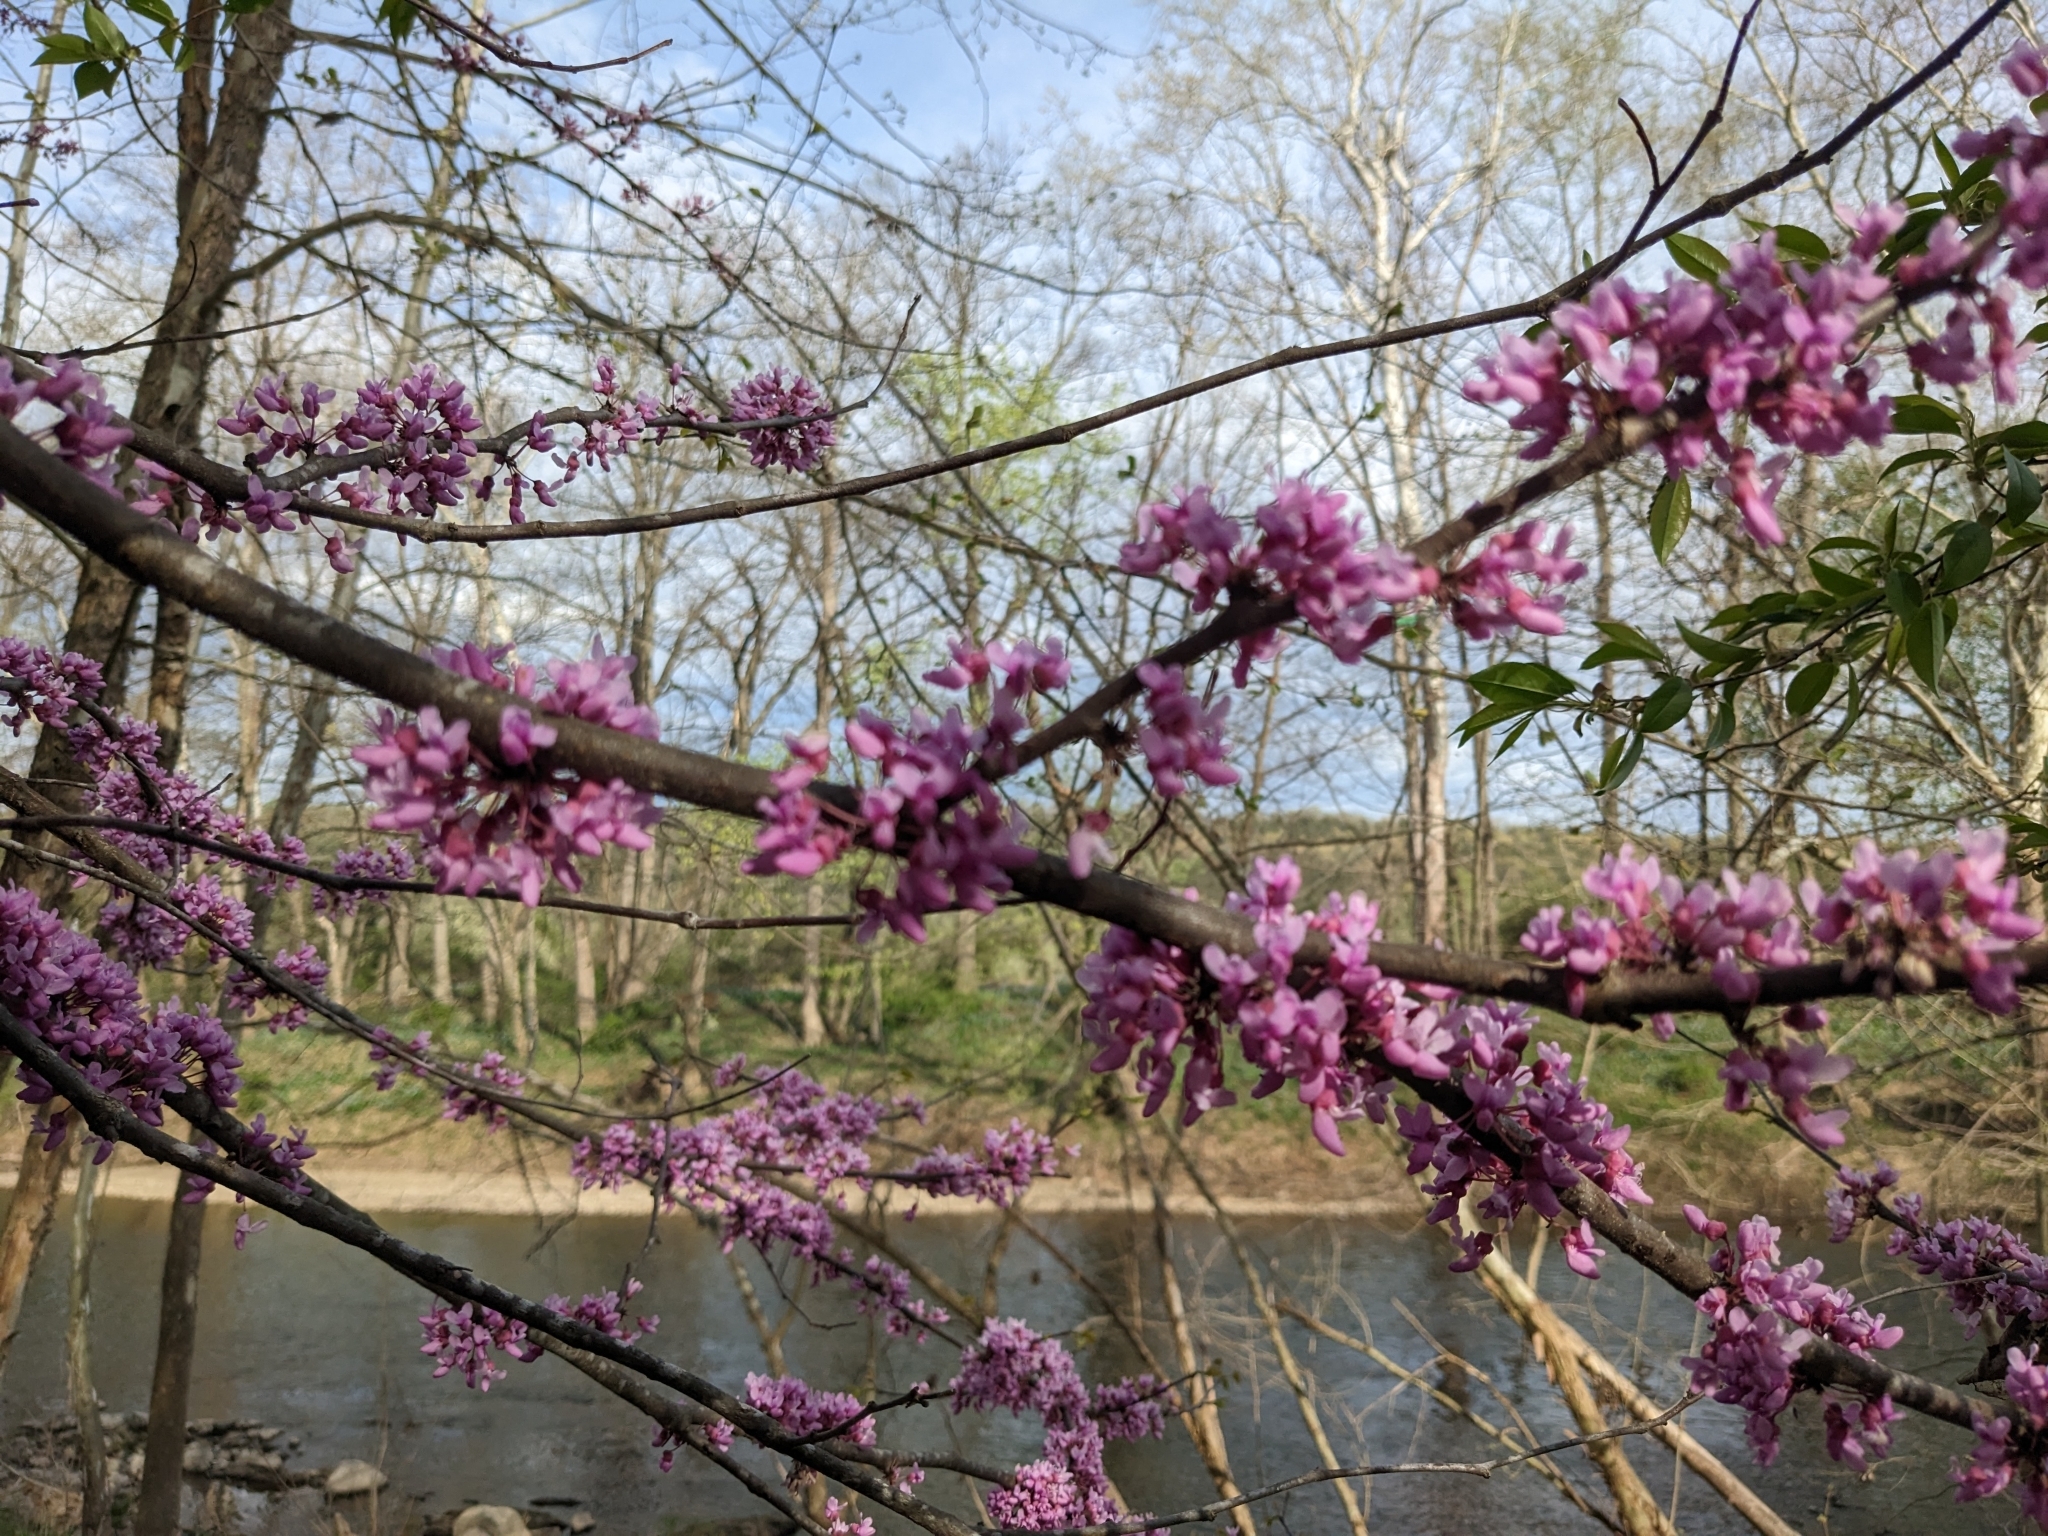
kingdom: Plantae
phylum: Tracheophyta
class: Magnoliopsida
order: Fabales
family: Fabaceae
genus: Cercis
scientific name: Cercis canadensis
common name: Eastern redbud
